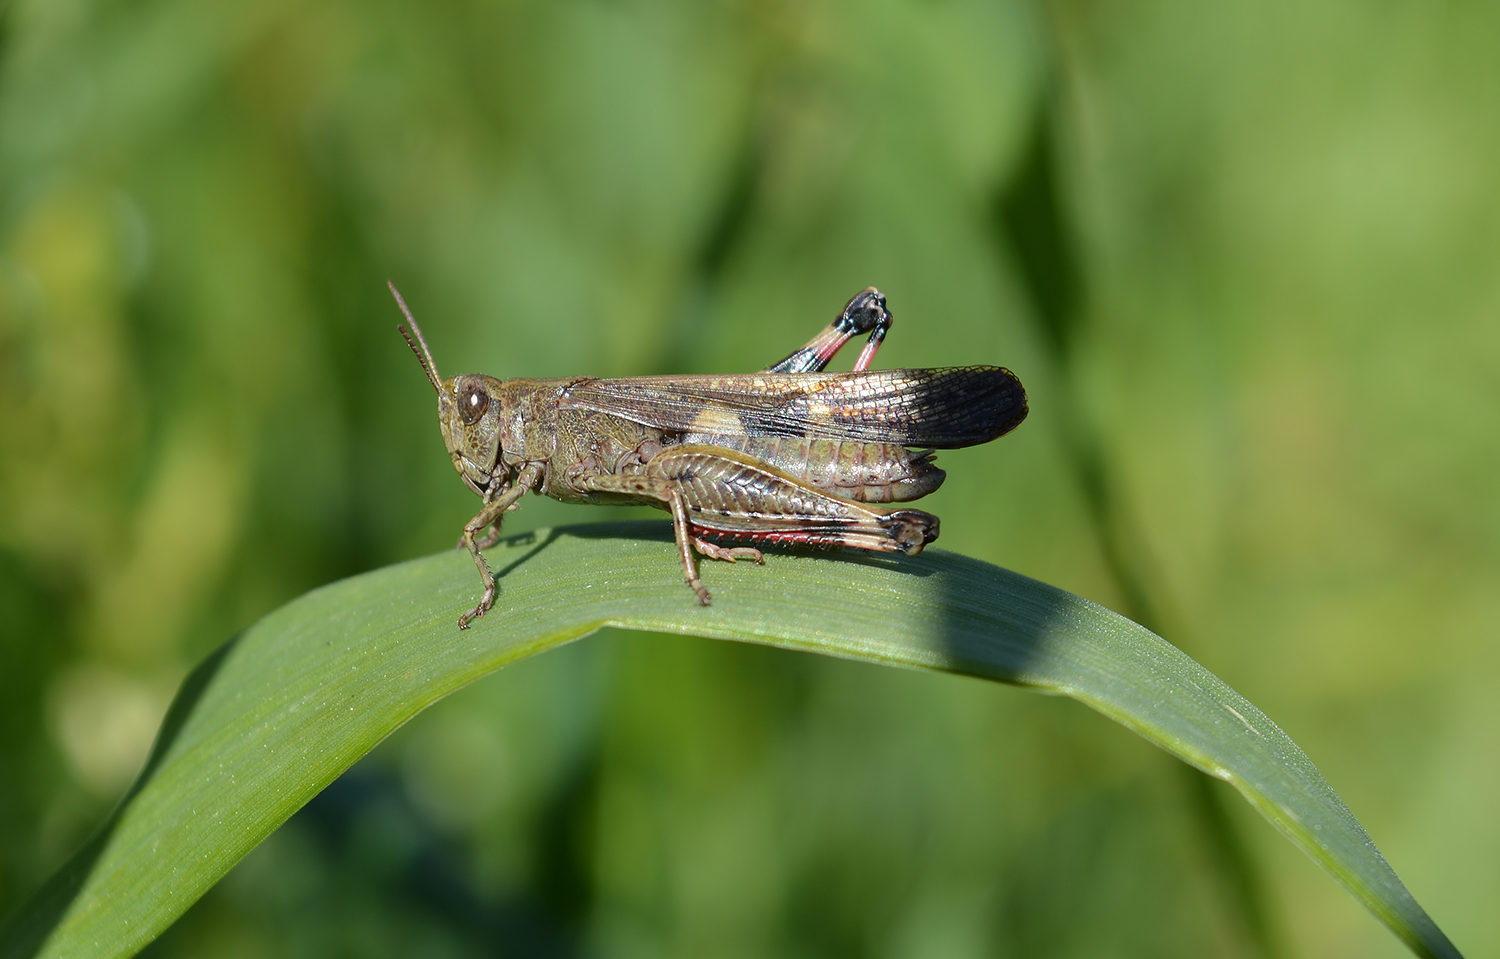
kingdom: Animalia
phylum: Arthropoda
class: Insecta
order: Orthoptera
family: Acrididae
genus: Aiolopus
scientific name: Aiolopus strepens
